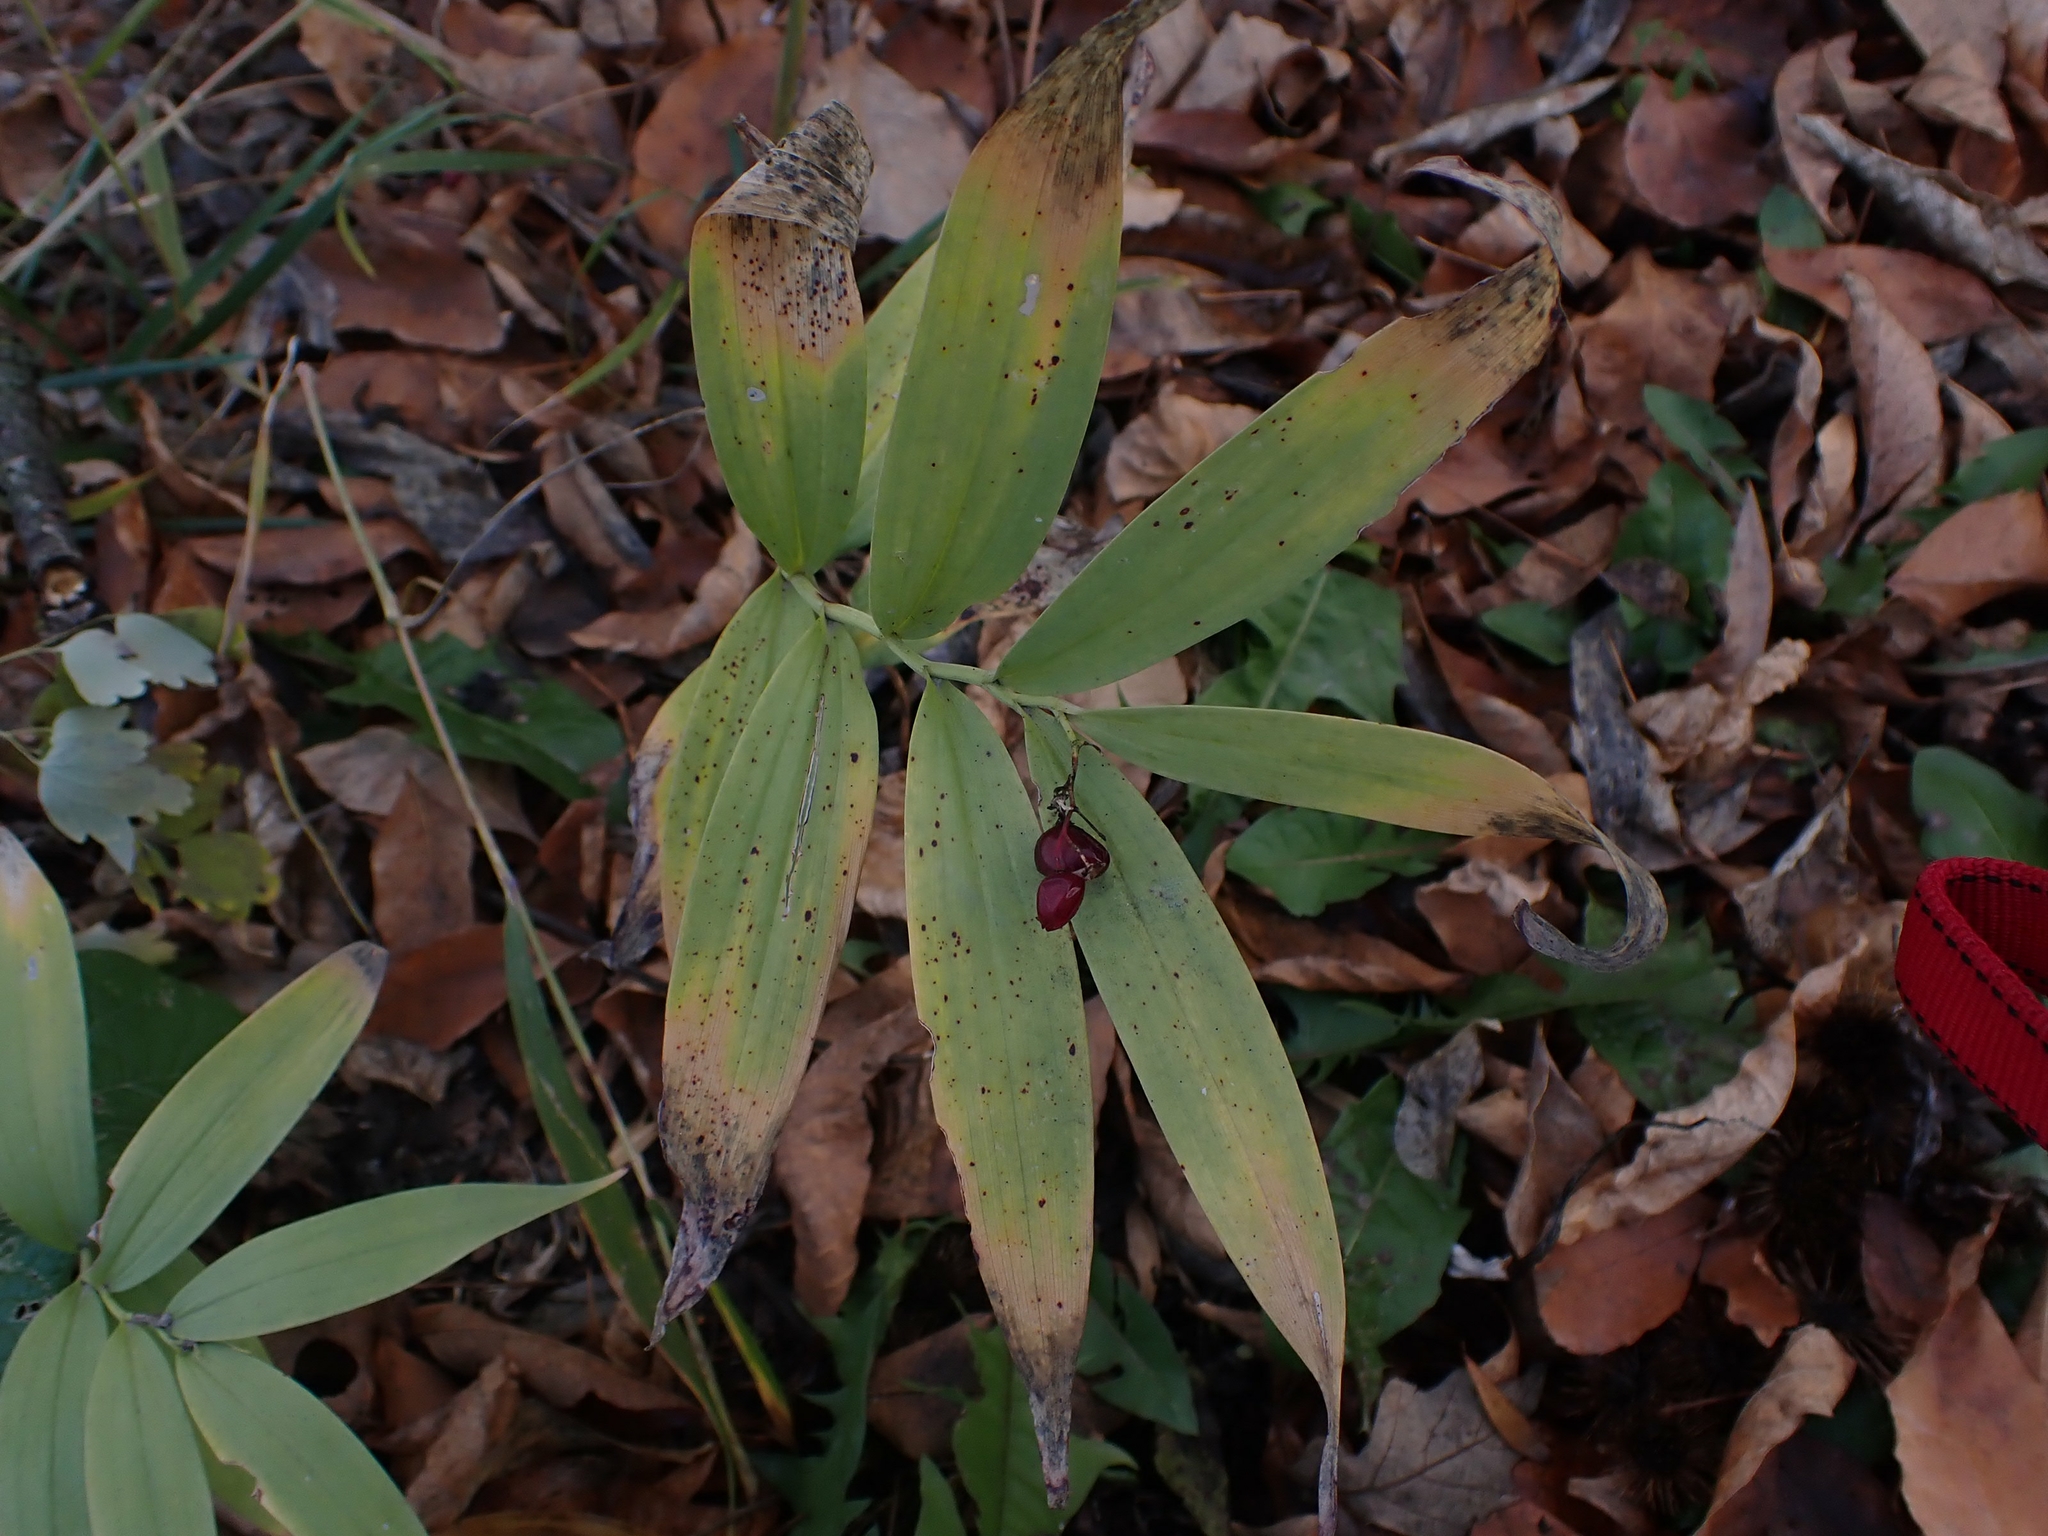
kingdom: Plantae
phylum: Tracheophyta
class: Liliopsida
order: Asparagales
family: Asparagaceae
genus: Maianthemum
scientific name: Maianthemum stellatum
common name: Little false solomon's seal
